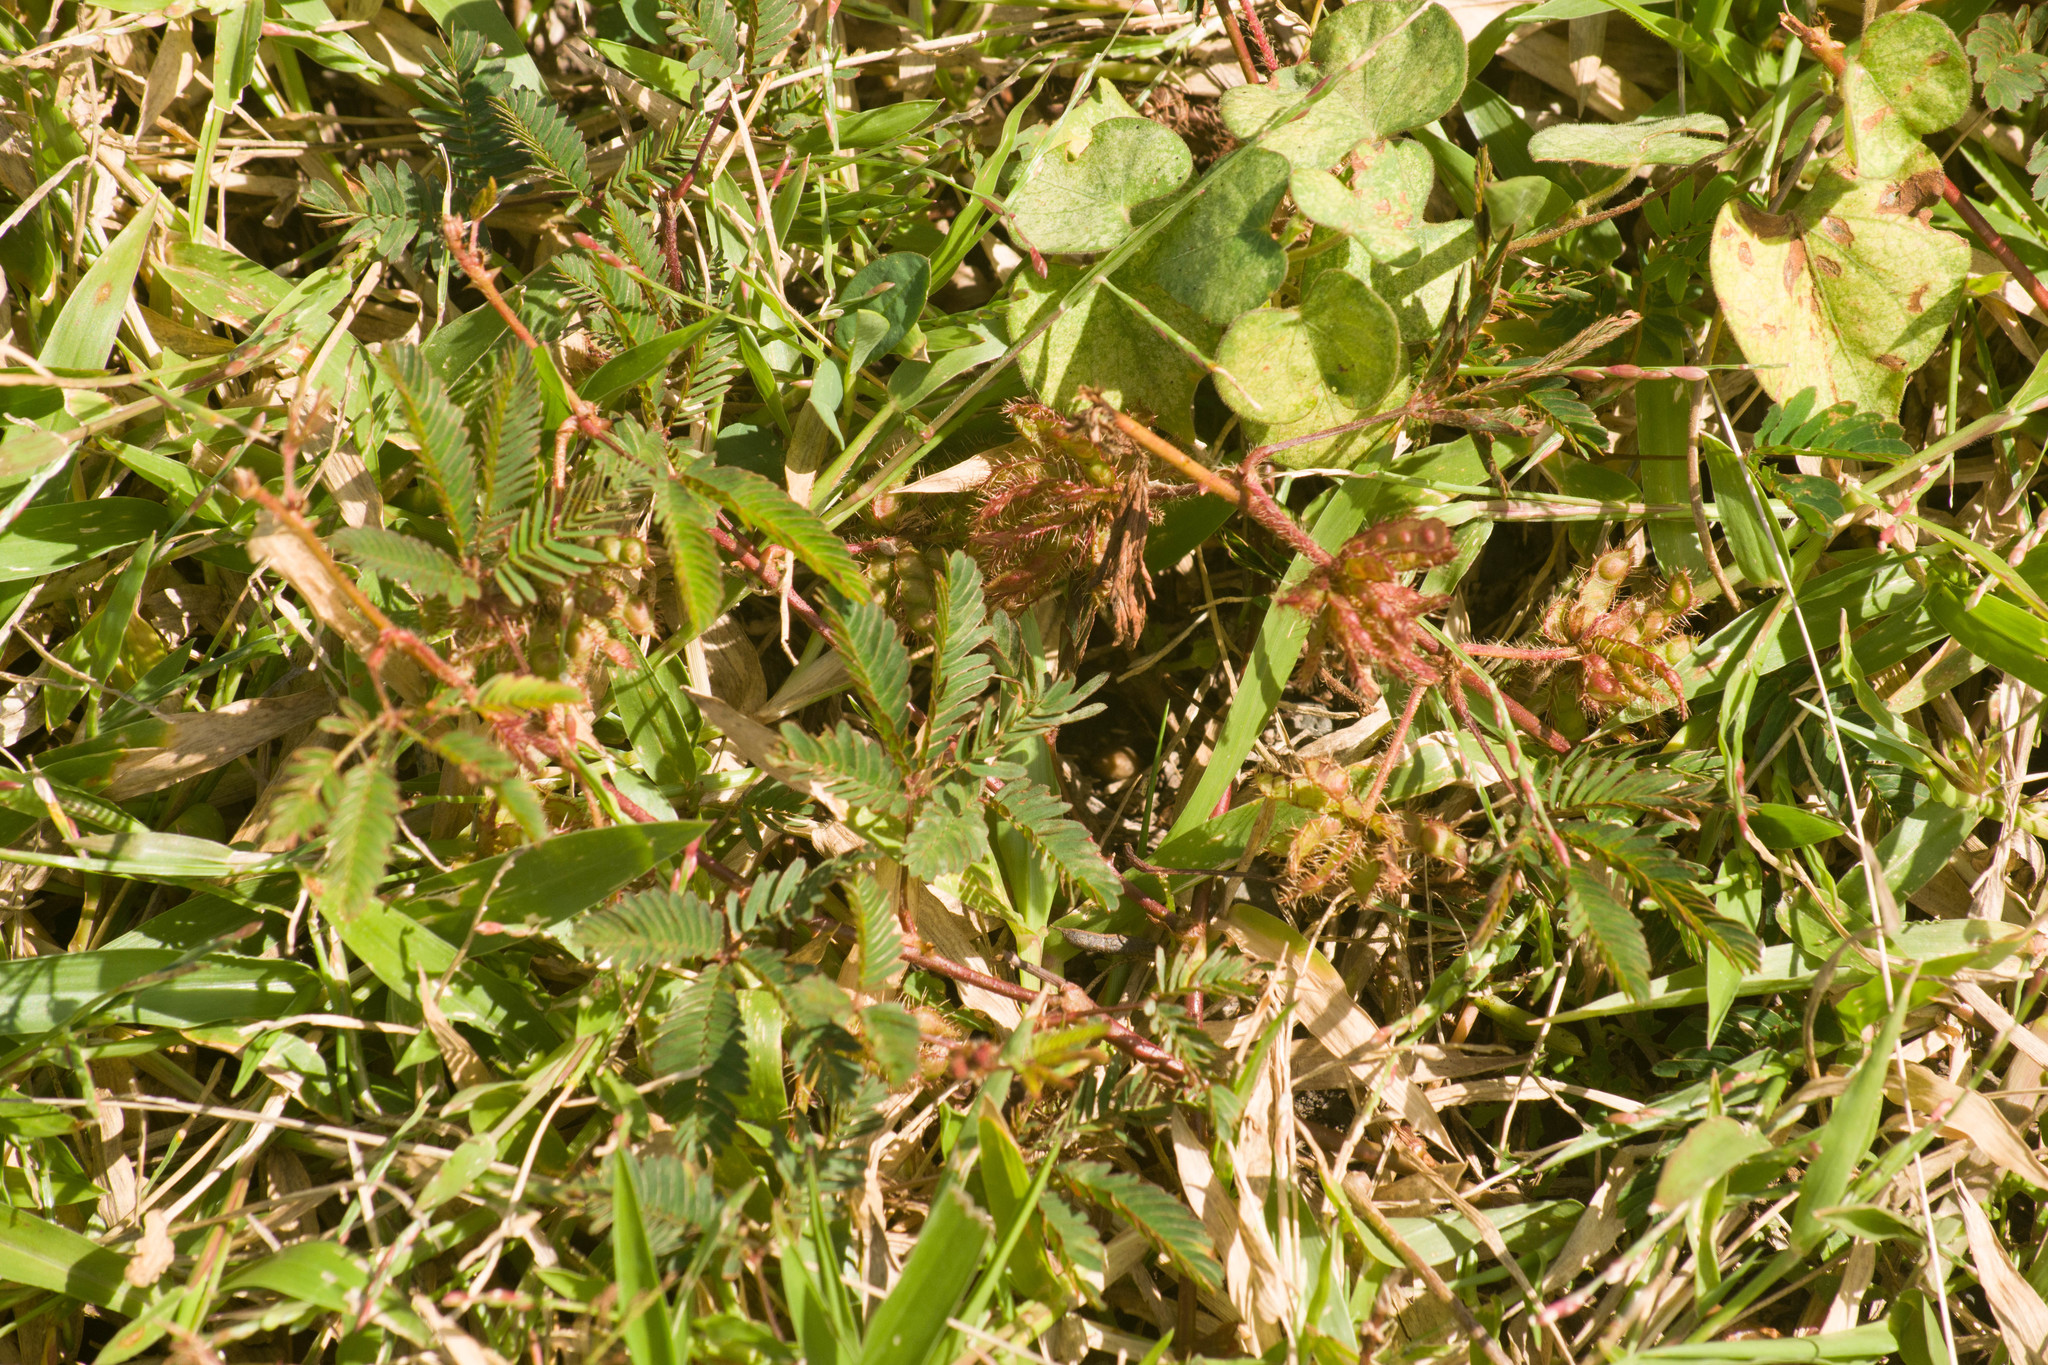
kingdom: Plantae
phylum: Tracheophyta
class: Magnoliopsida
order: Fabales
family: Fabaceae
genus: Mimosa
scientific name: Mimosa pudica
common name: Sensitive plant
